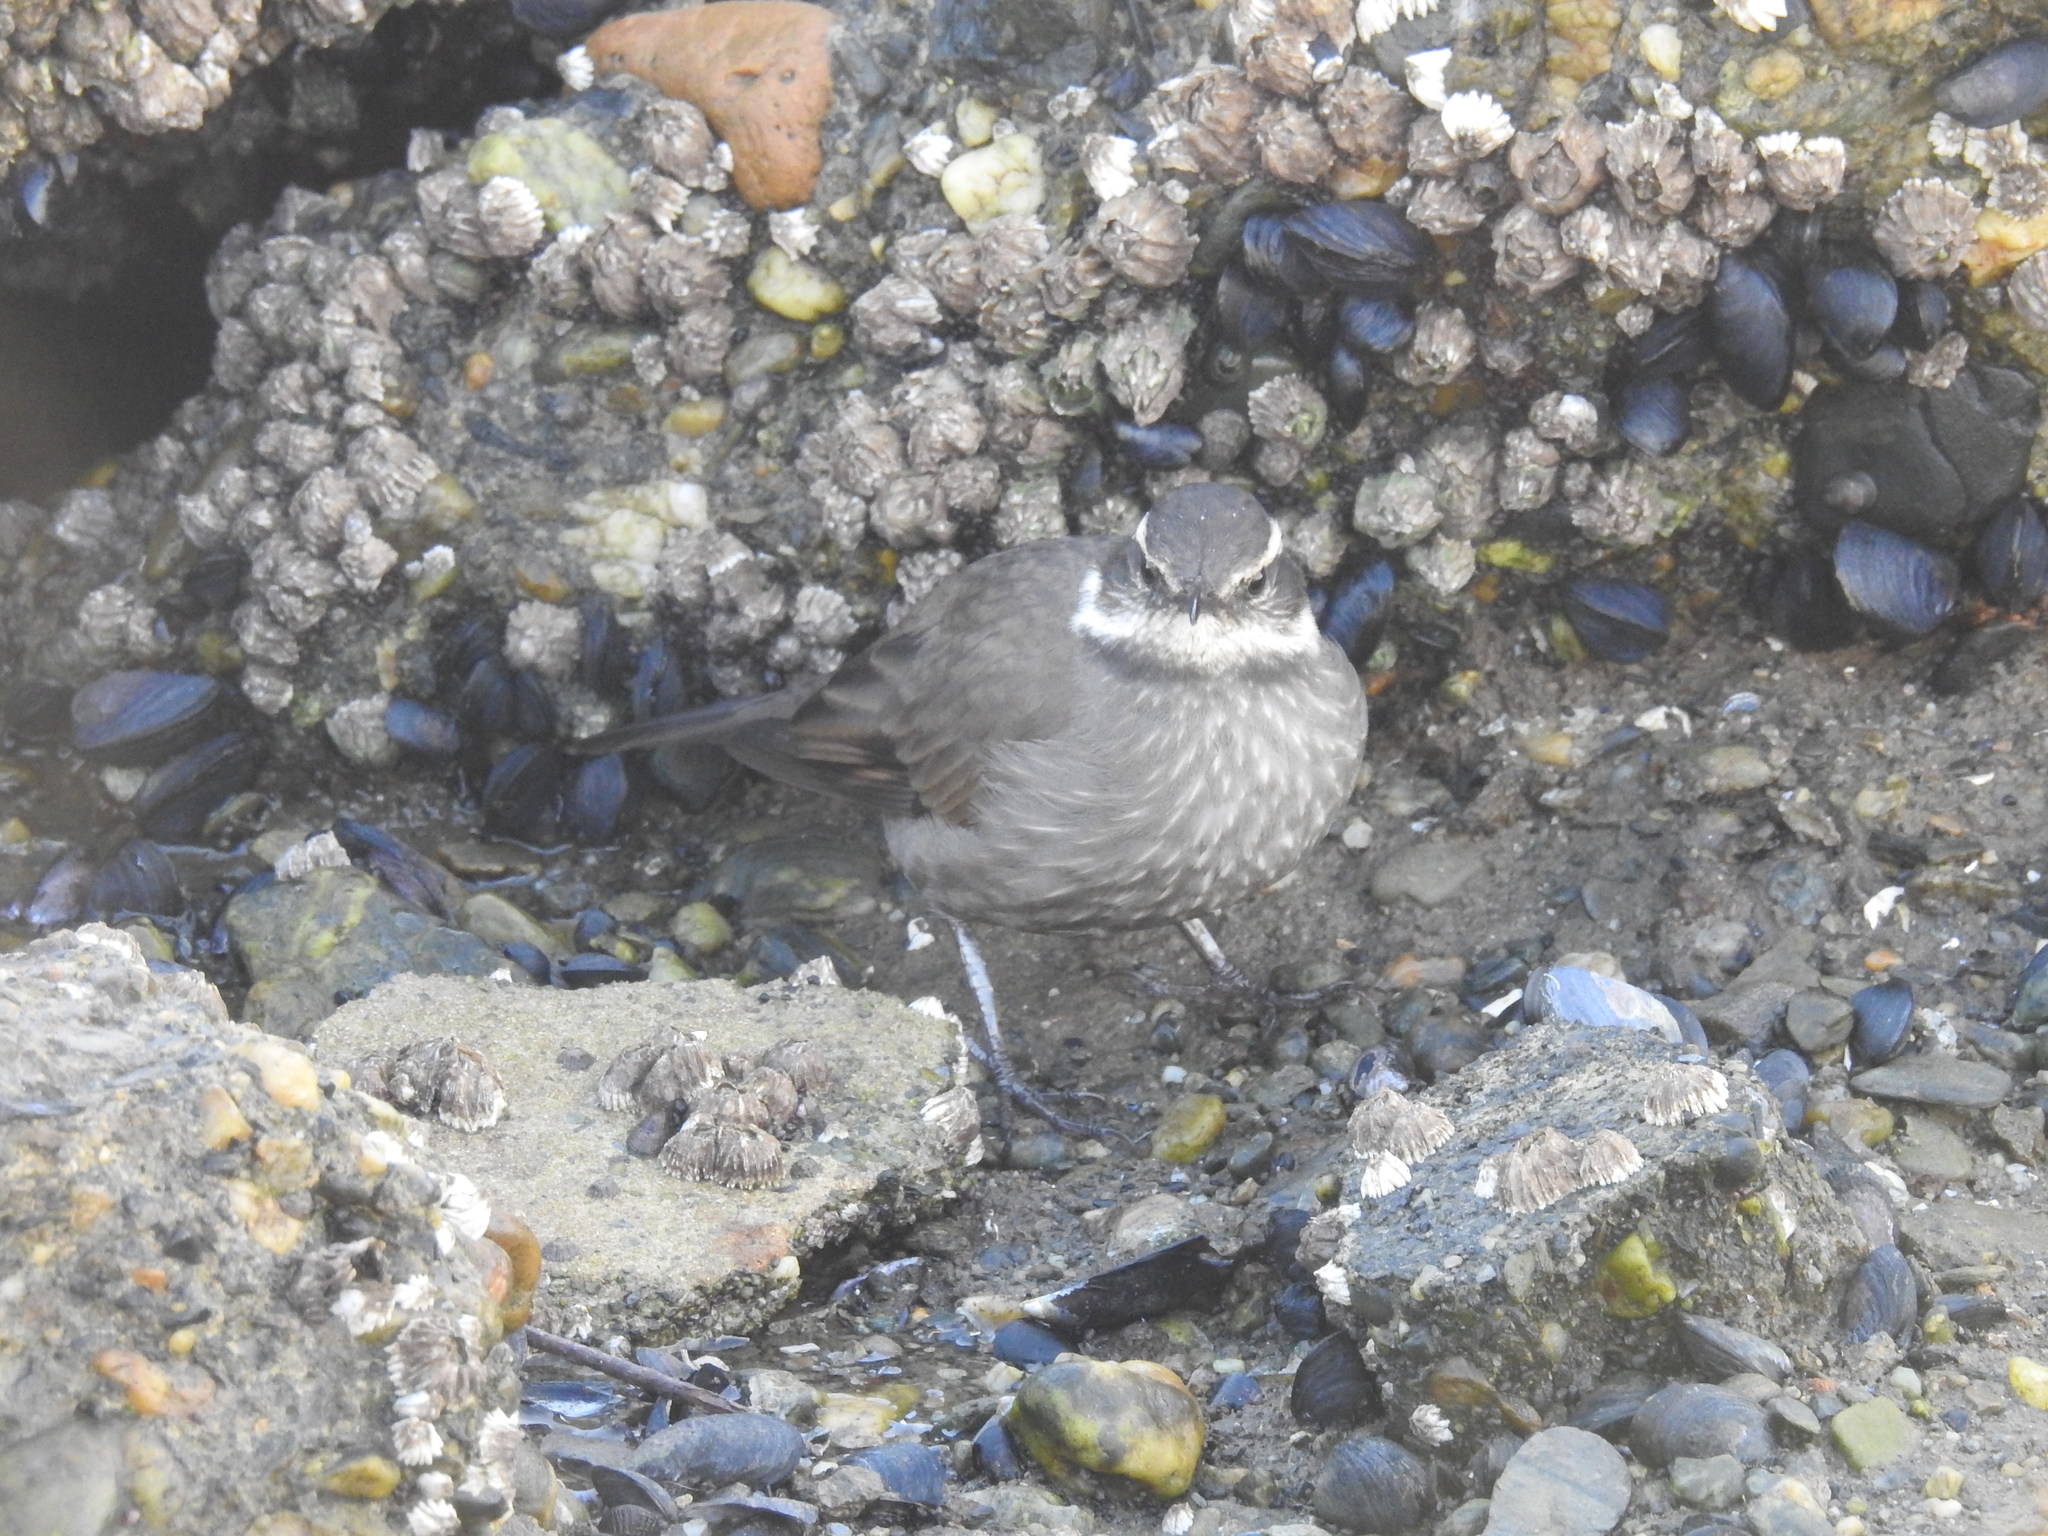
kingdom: Animalia
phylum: Chordata
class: Aves
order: Passeriformes
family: Furnariidae
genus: Cinclodes
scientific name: Cinclodes patagonicus
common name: Dark-bellied cinclodes
